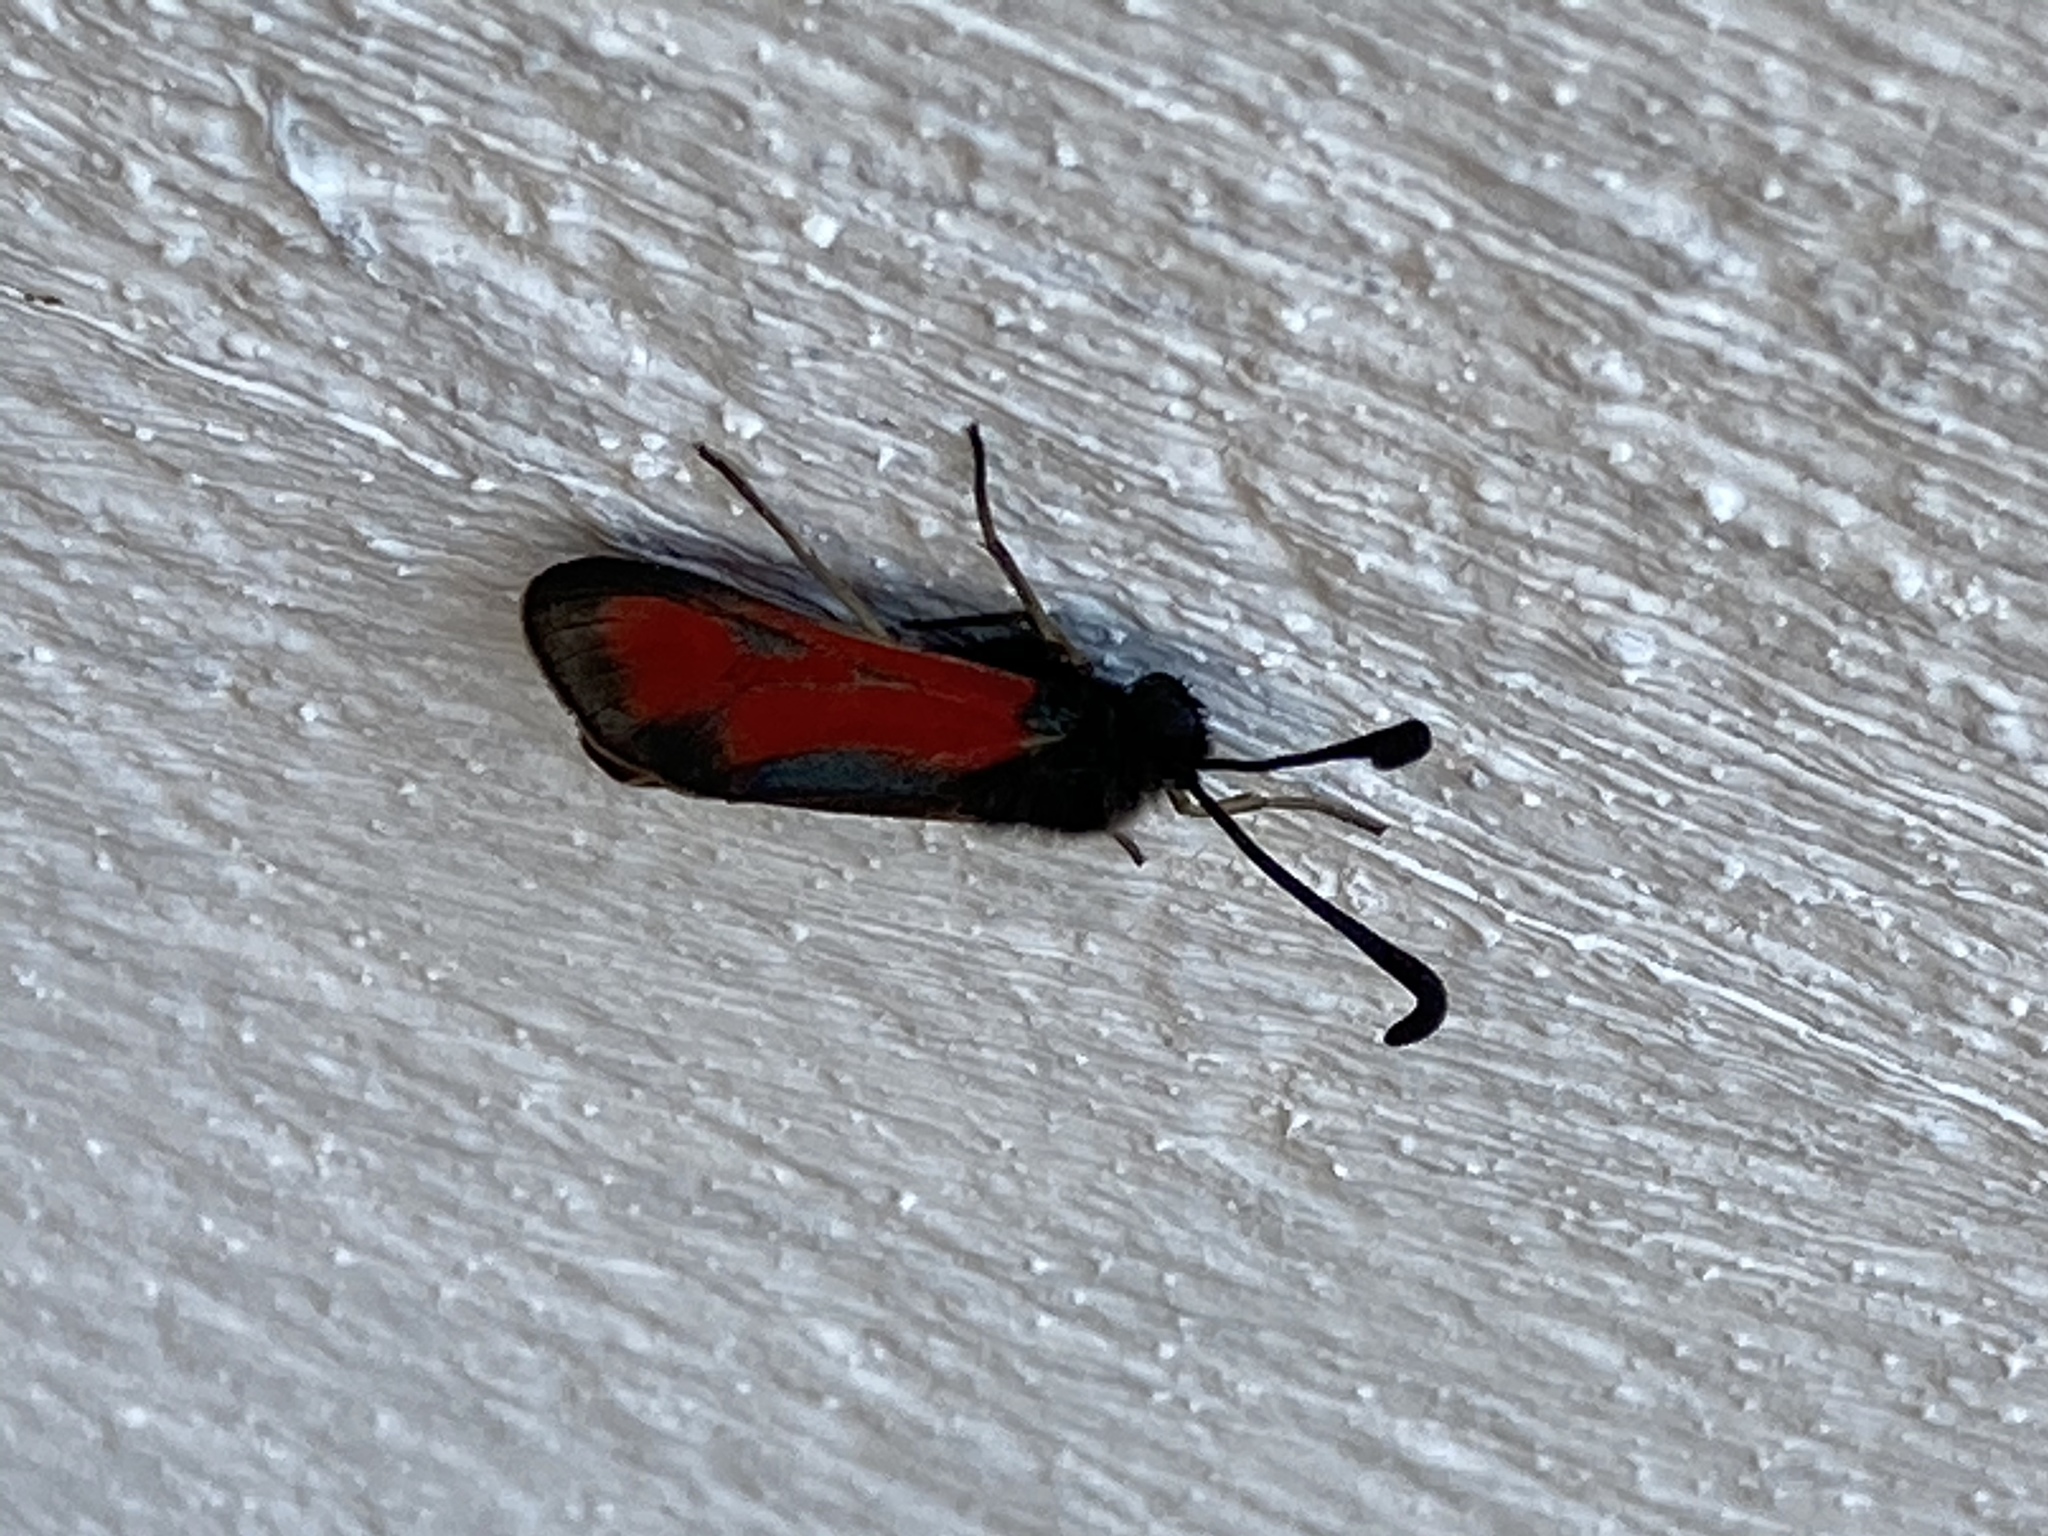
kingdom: Animalia
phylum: Arthropoda
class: Insecta
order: Lepidoptera
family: Zygaenidae
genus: Zygaena
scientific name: Zygaena punctum
